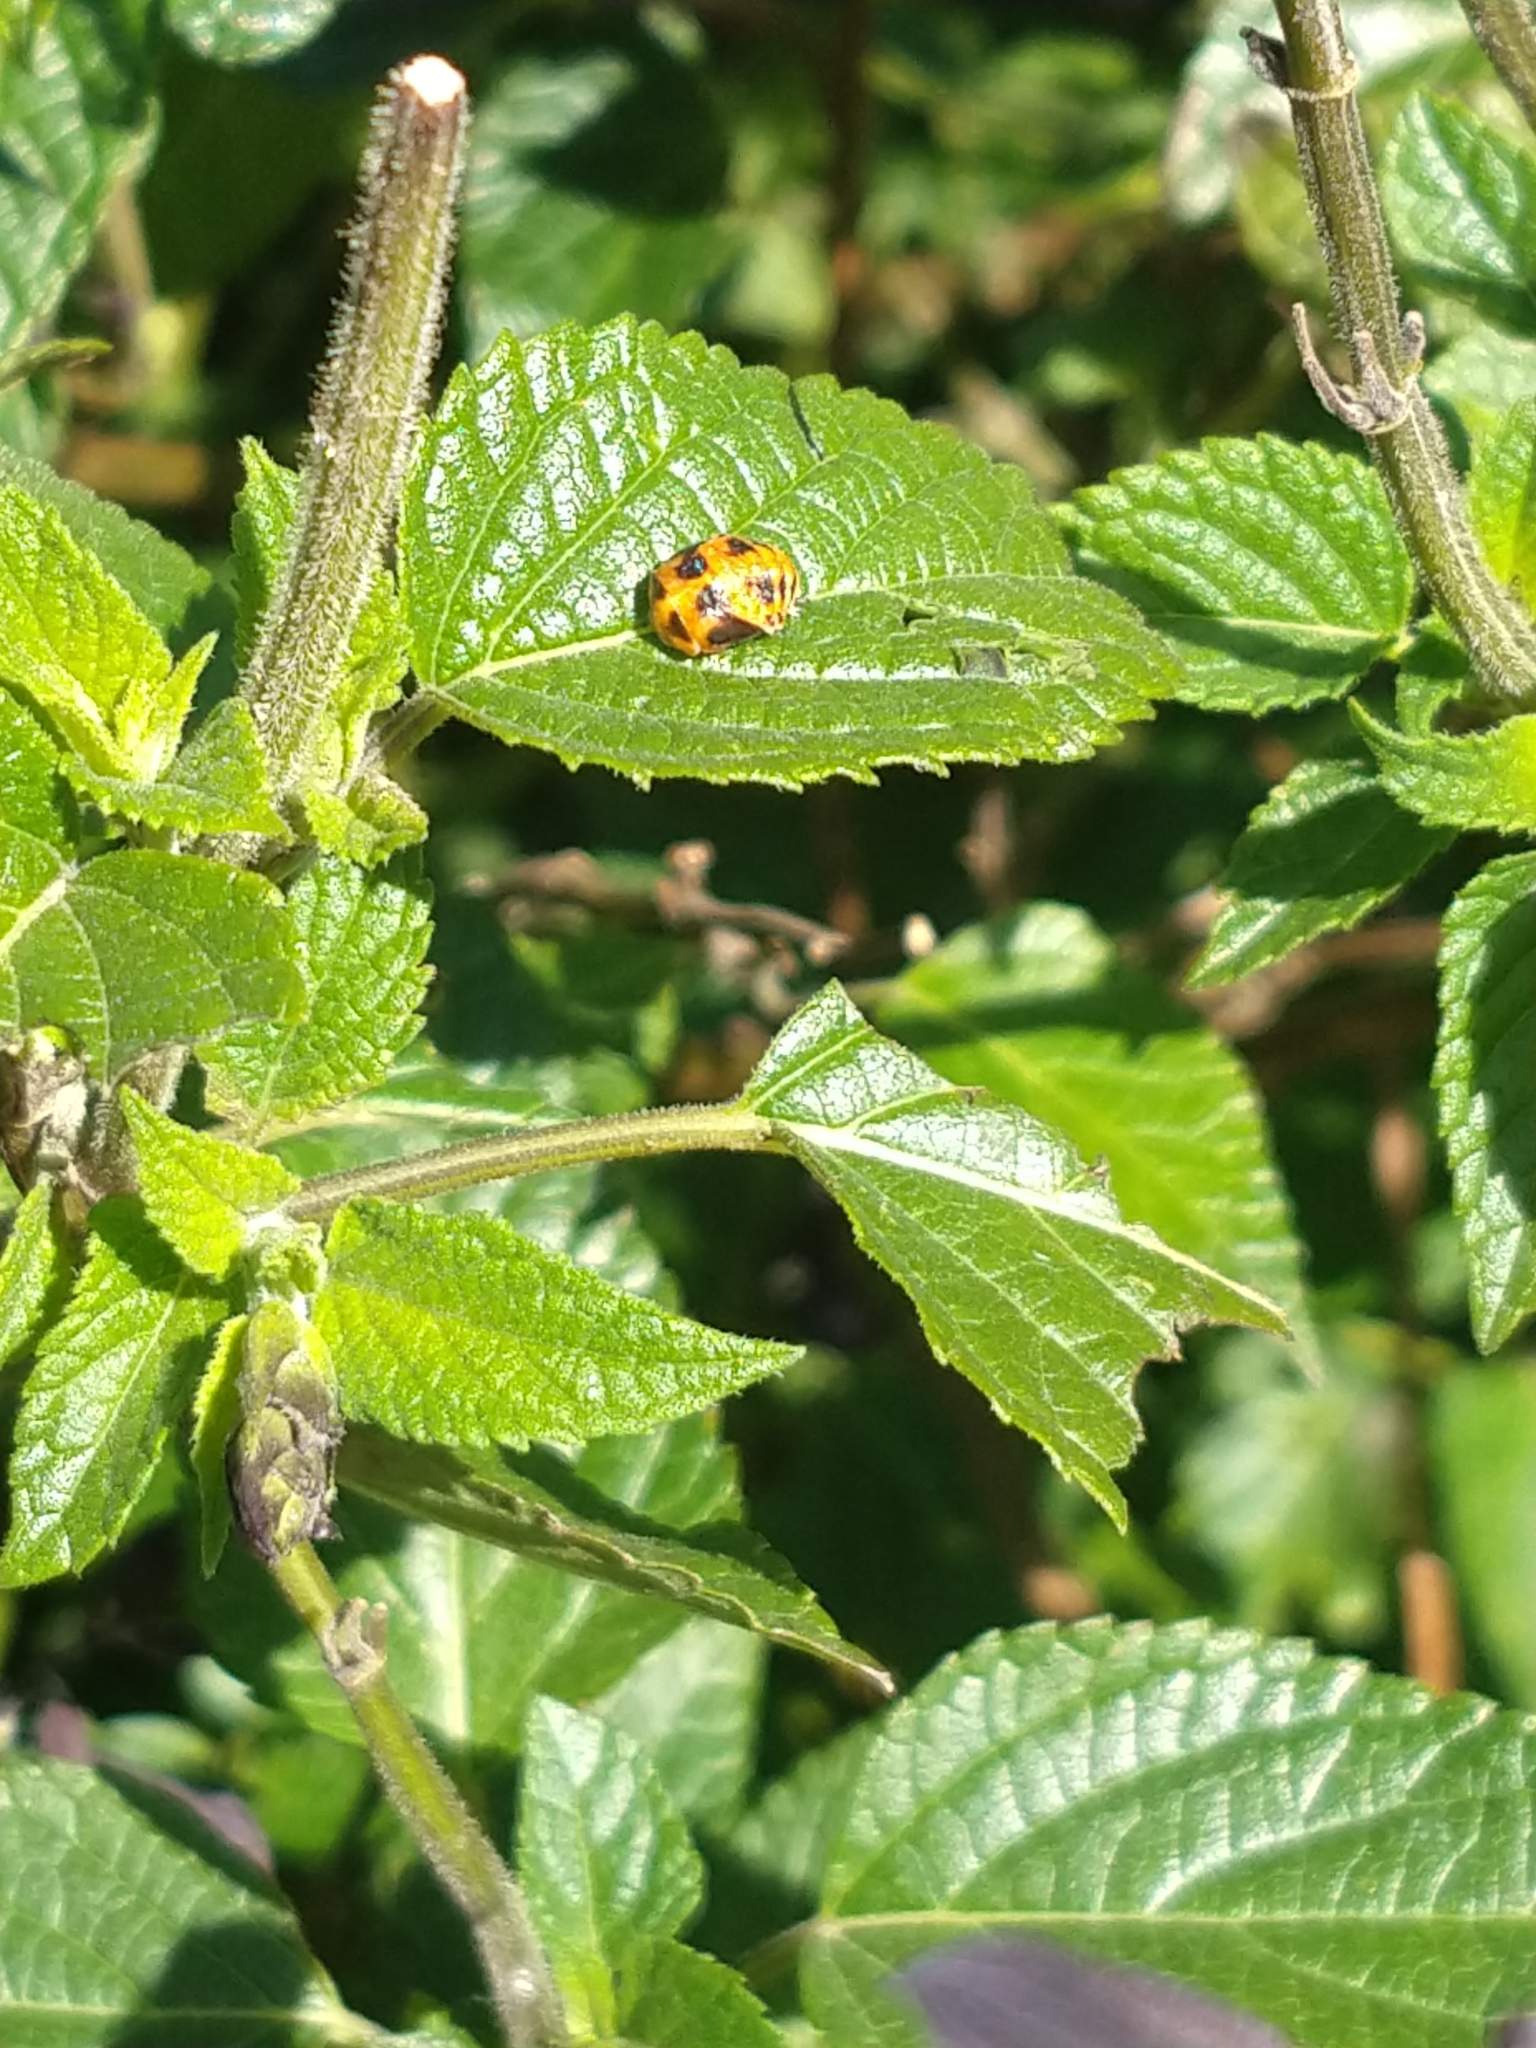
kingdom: Animalia
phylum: Arthropoda
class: Insecta
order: Coleoptera
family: Coccinellidae
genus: Harmonia
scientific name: Harmonia axyridis
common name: Harlequin ladybird
